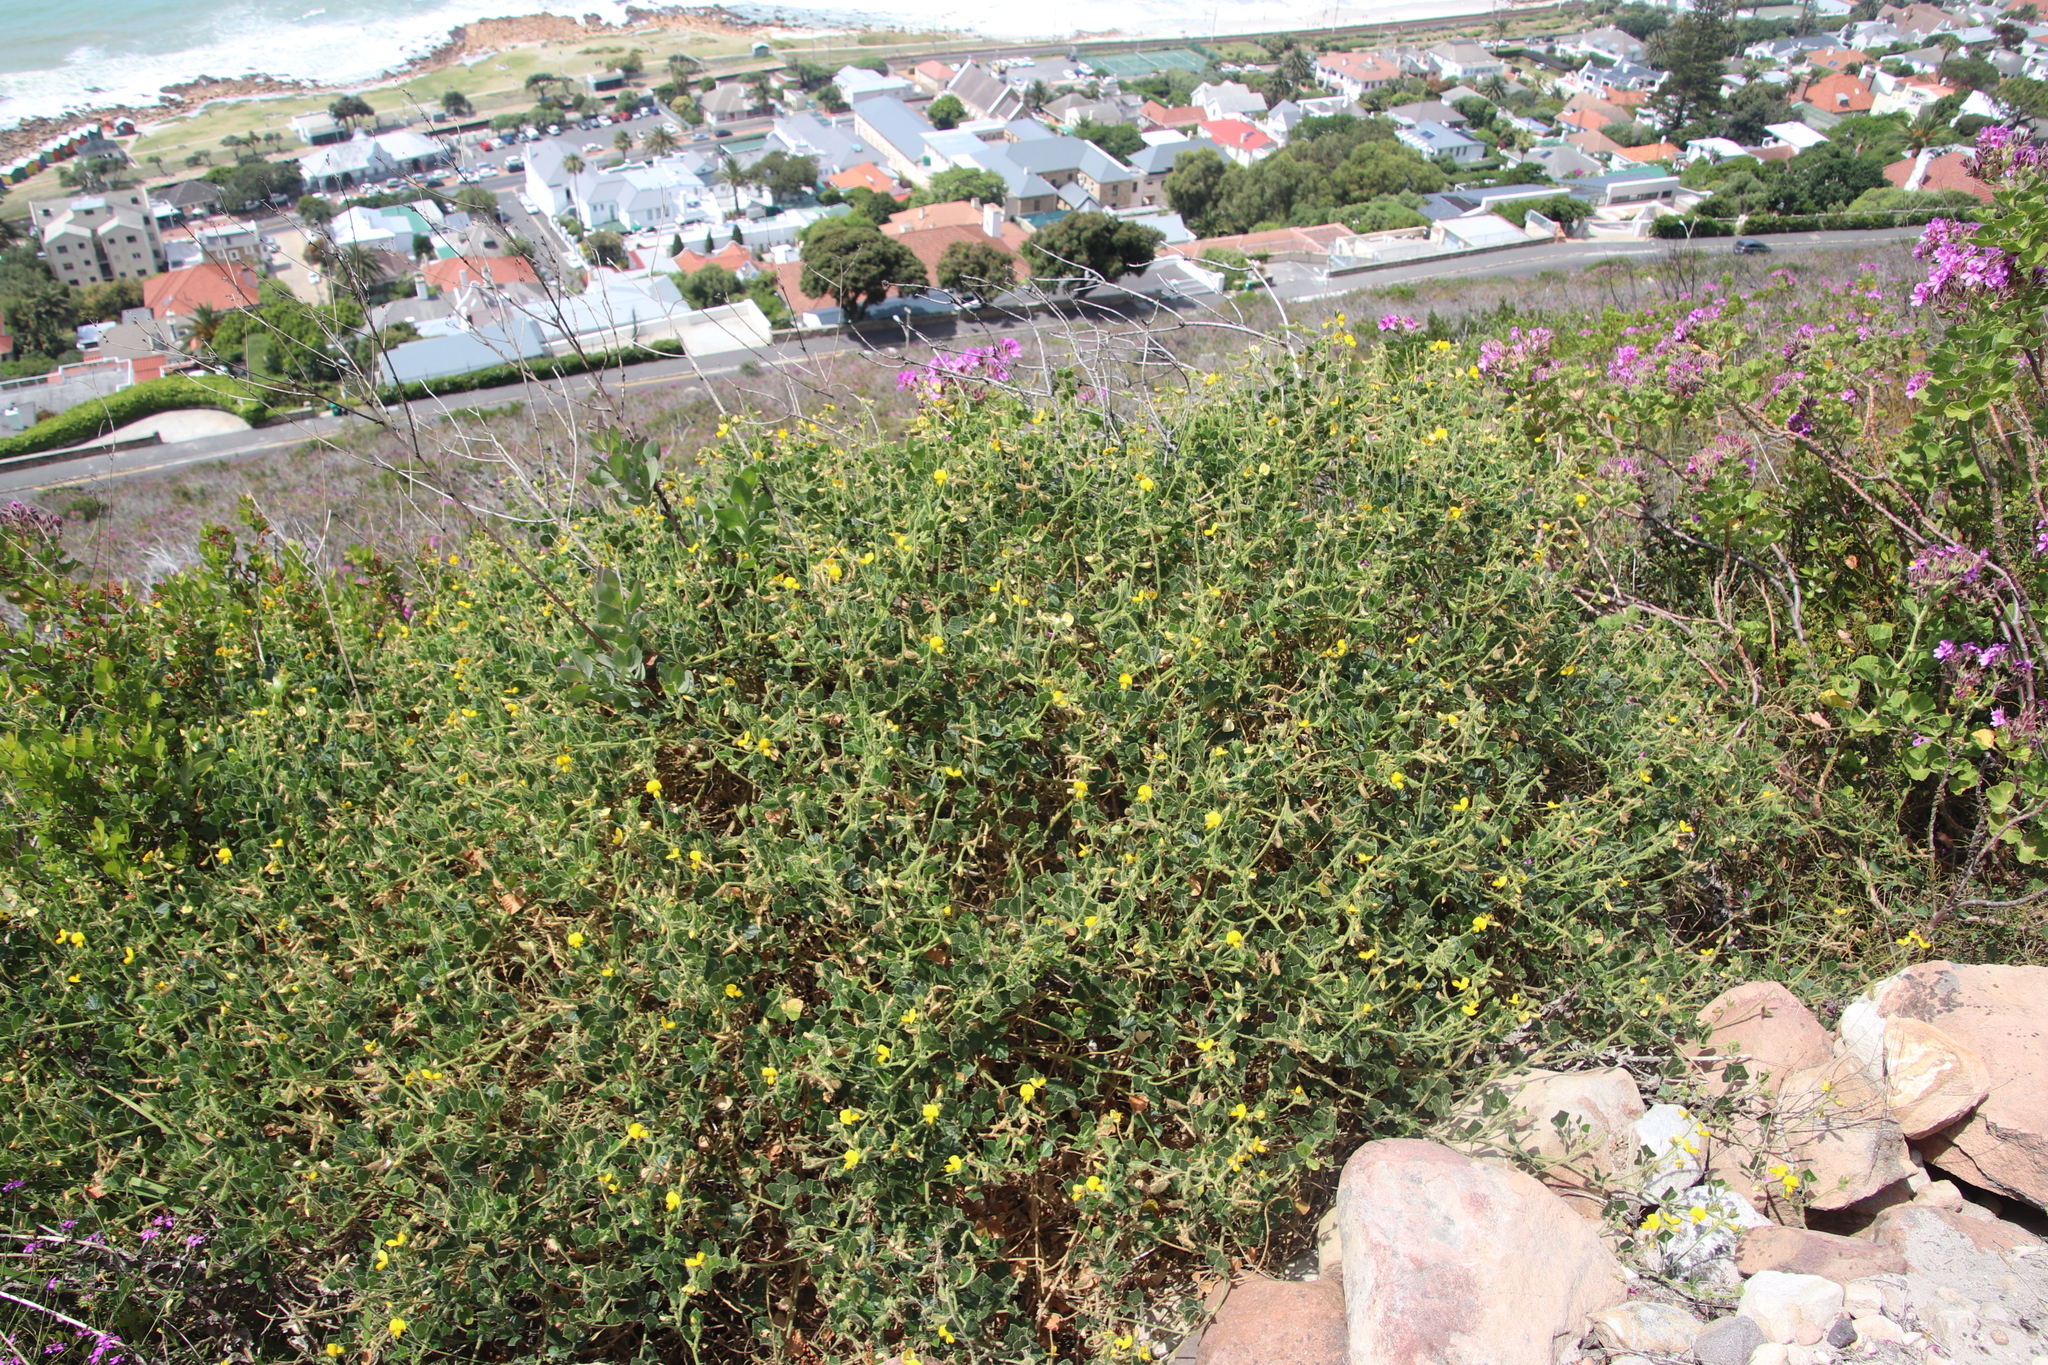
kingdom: Plantae
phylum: Tracheophyta
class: Magnoliopsida
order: Fabales
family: Fabaceae
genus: Bolusafra
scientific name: Bolusafra bituminosa
